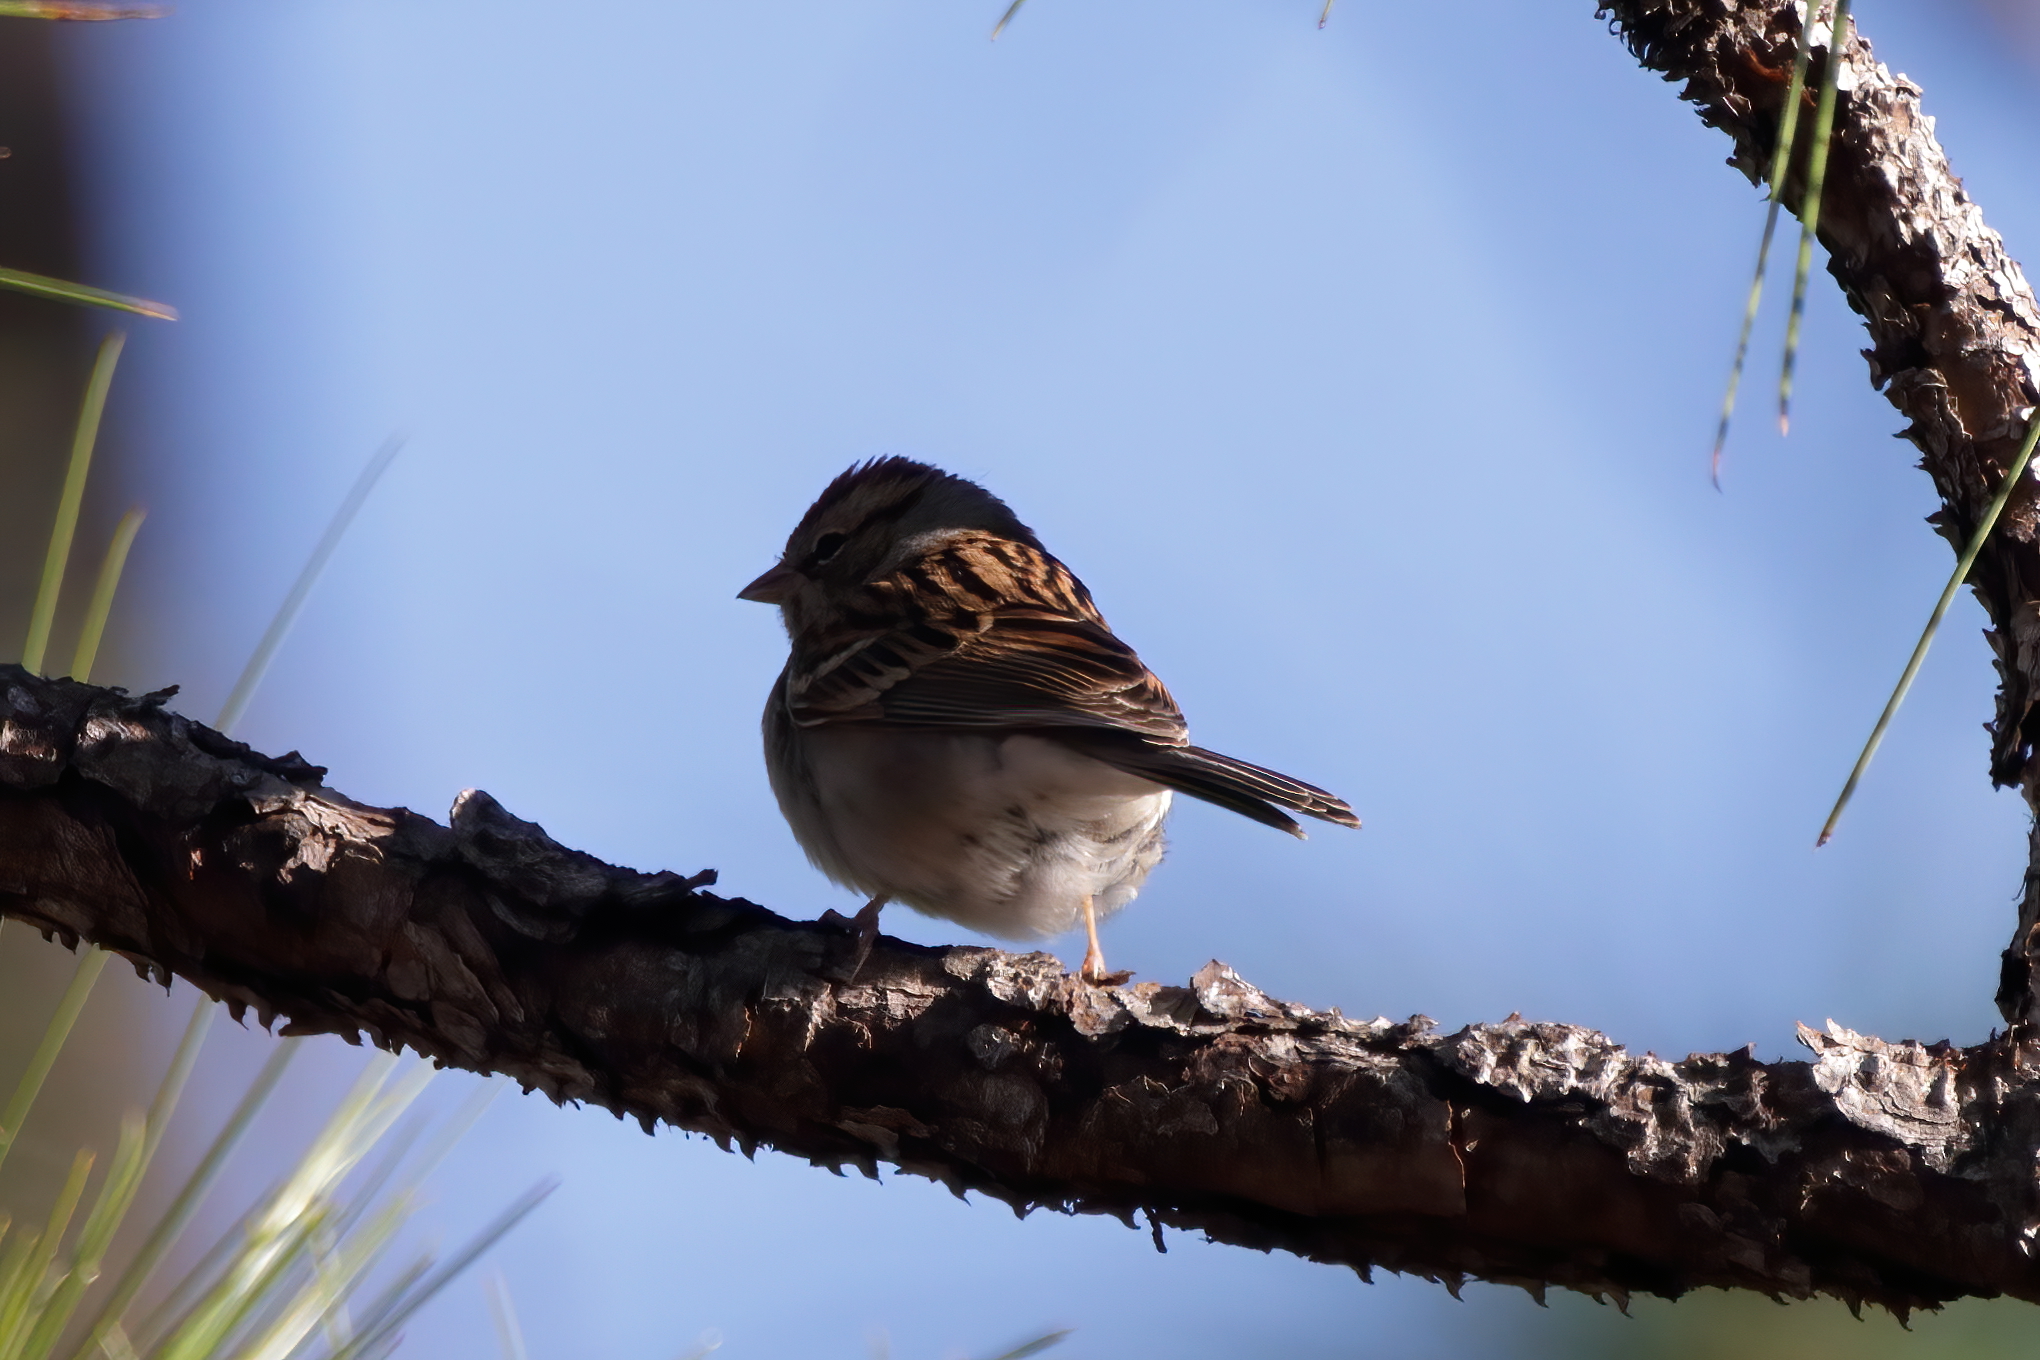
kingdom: Animalia
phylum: Chordata
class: Aves
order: Passeriformes
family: Passerellidae
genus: Spizella
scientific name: Spizella passerina
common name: Chipping sparrow
